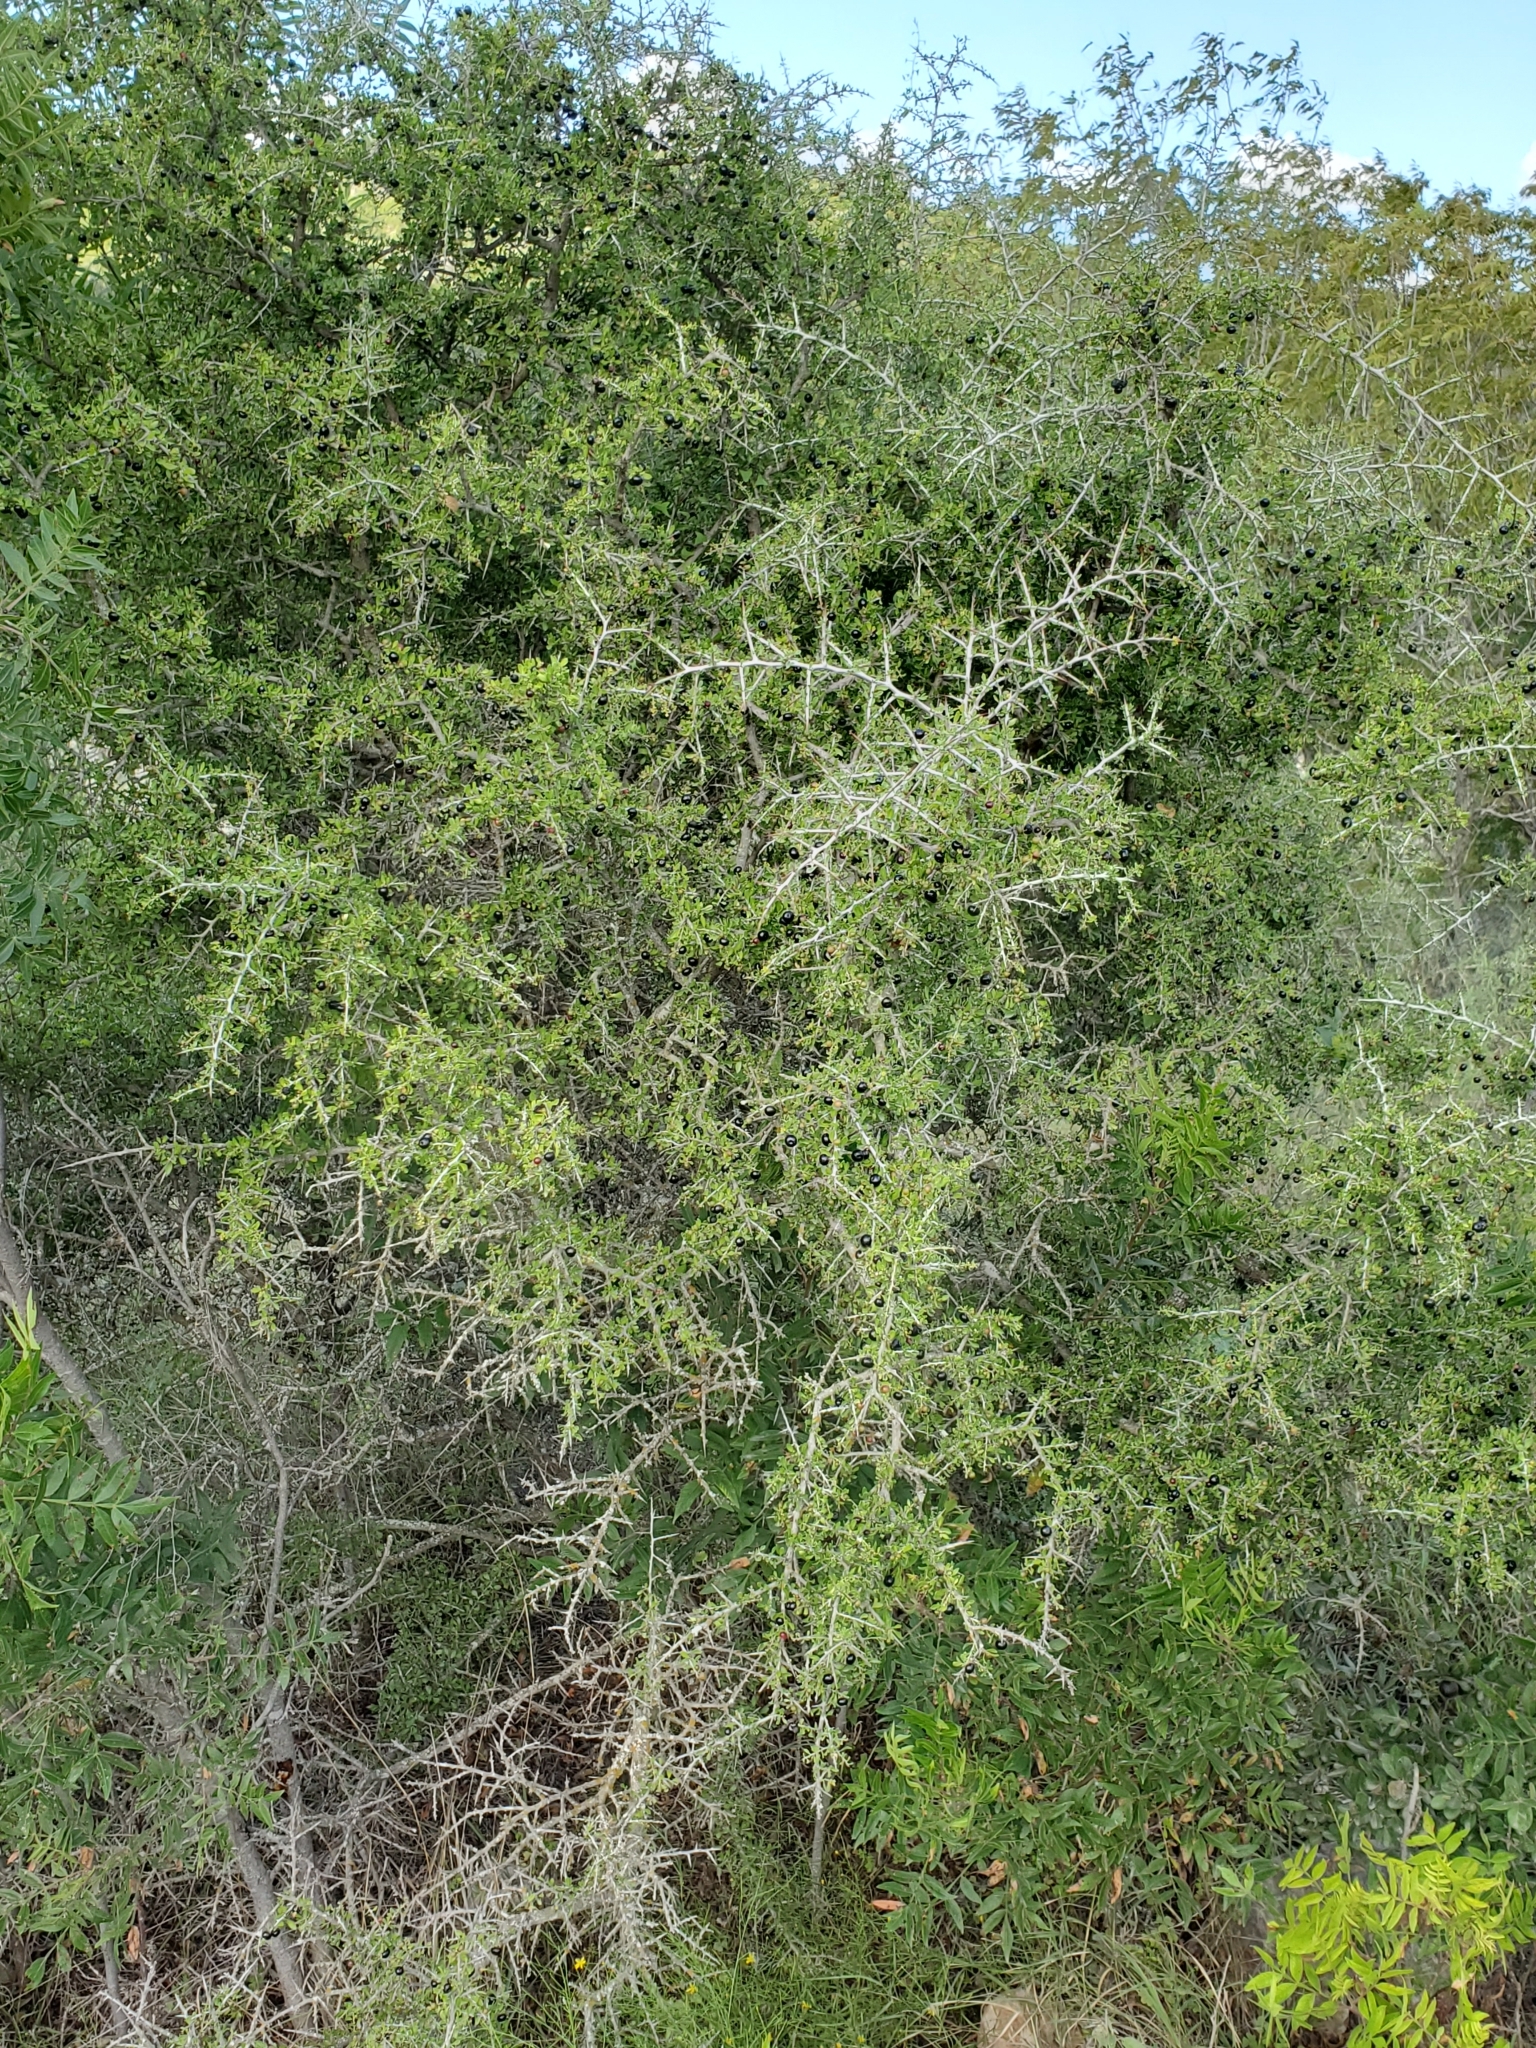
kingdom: Plantae
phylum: Tracheophyta
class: Magnoliopsida
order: Rosales
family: Rhamnaceae
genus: Condalia
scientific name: Condalia viridis
